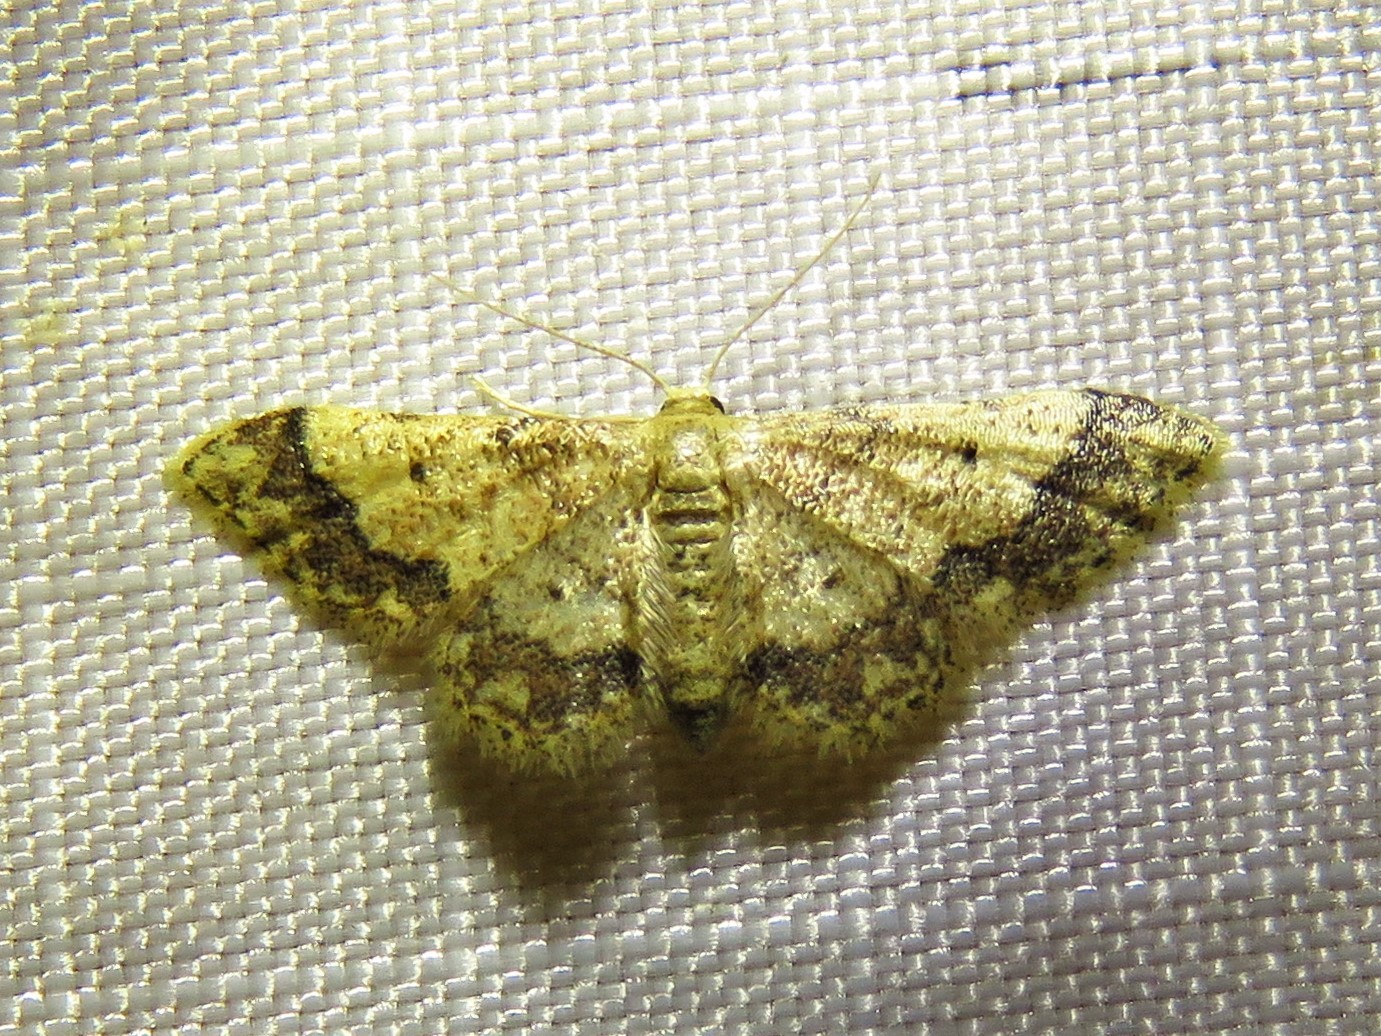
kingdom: Animalia
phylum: Arthropoda
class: Insecta
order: Lepidoptera
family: Geometridae
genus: Idaea
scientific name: Idaea celtima
